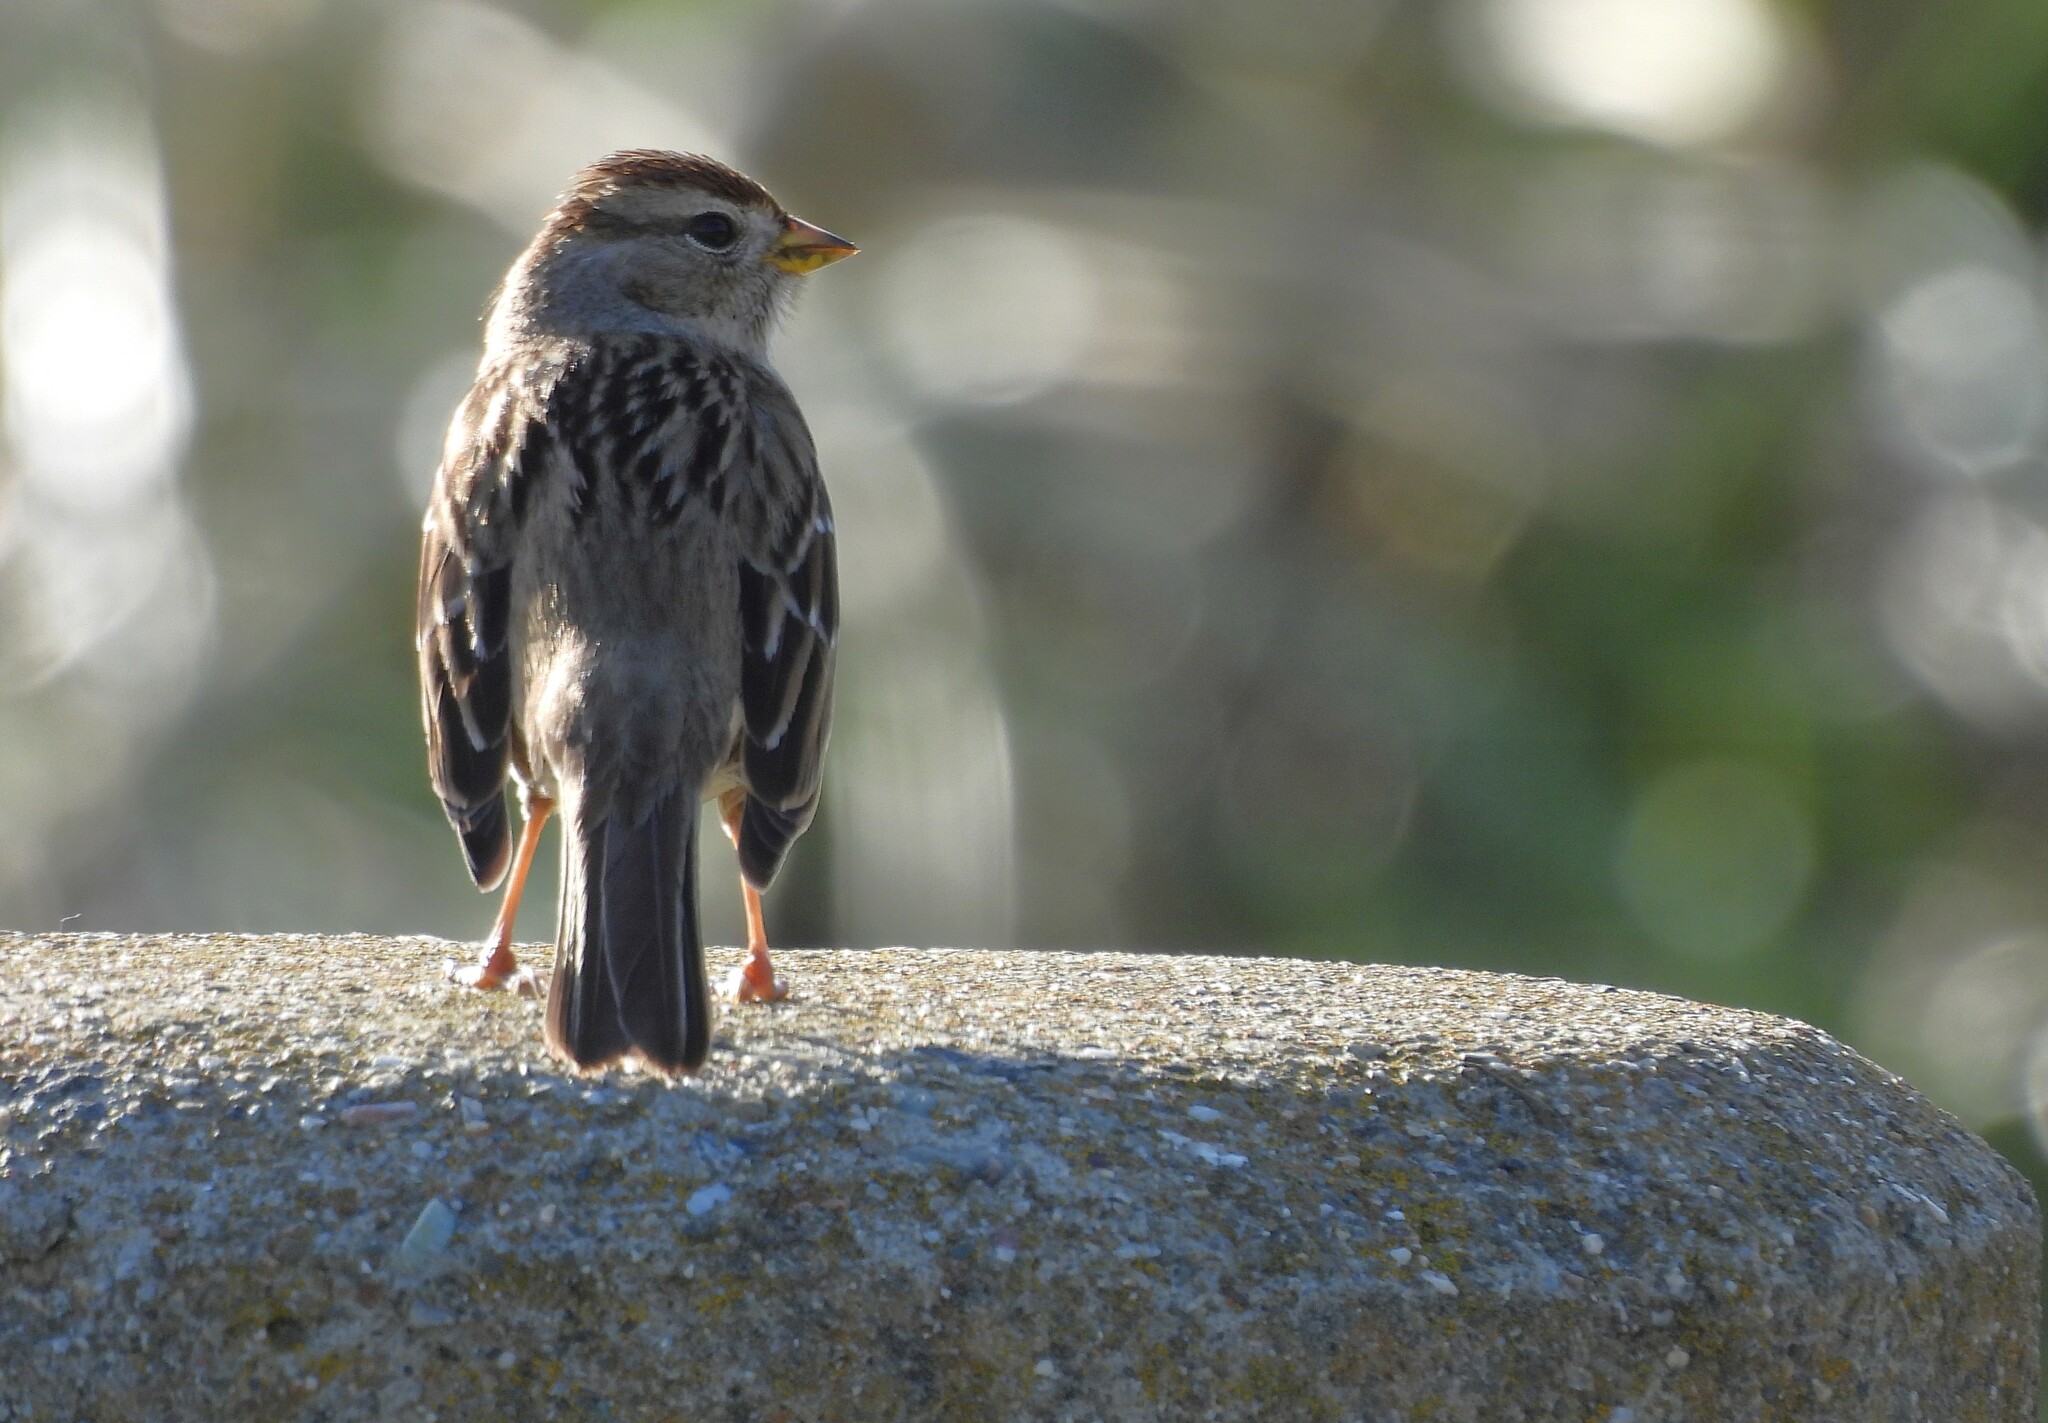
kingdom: Animalia
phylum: Chordata
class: Aves
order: Passeriformes
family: Passerellidae
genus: Zonotrichia
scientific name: Zonotrichia leucophrys
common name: White-crowned sparrow
